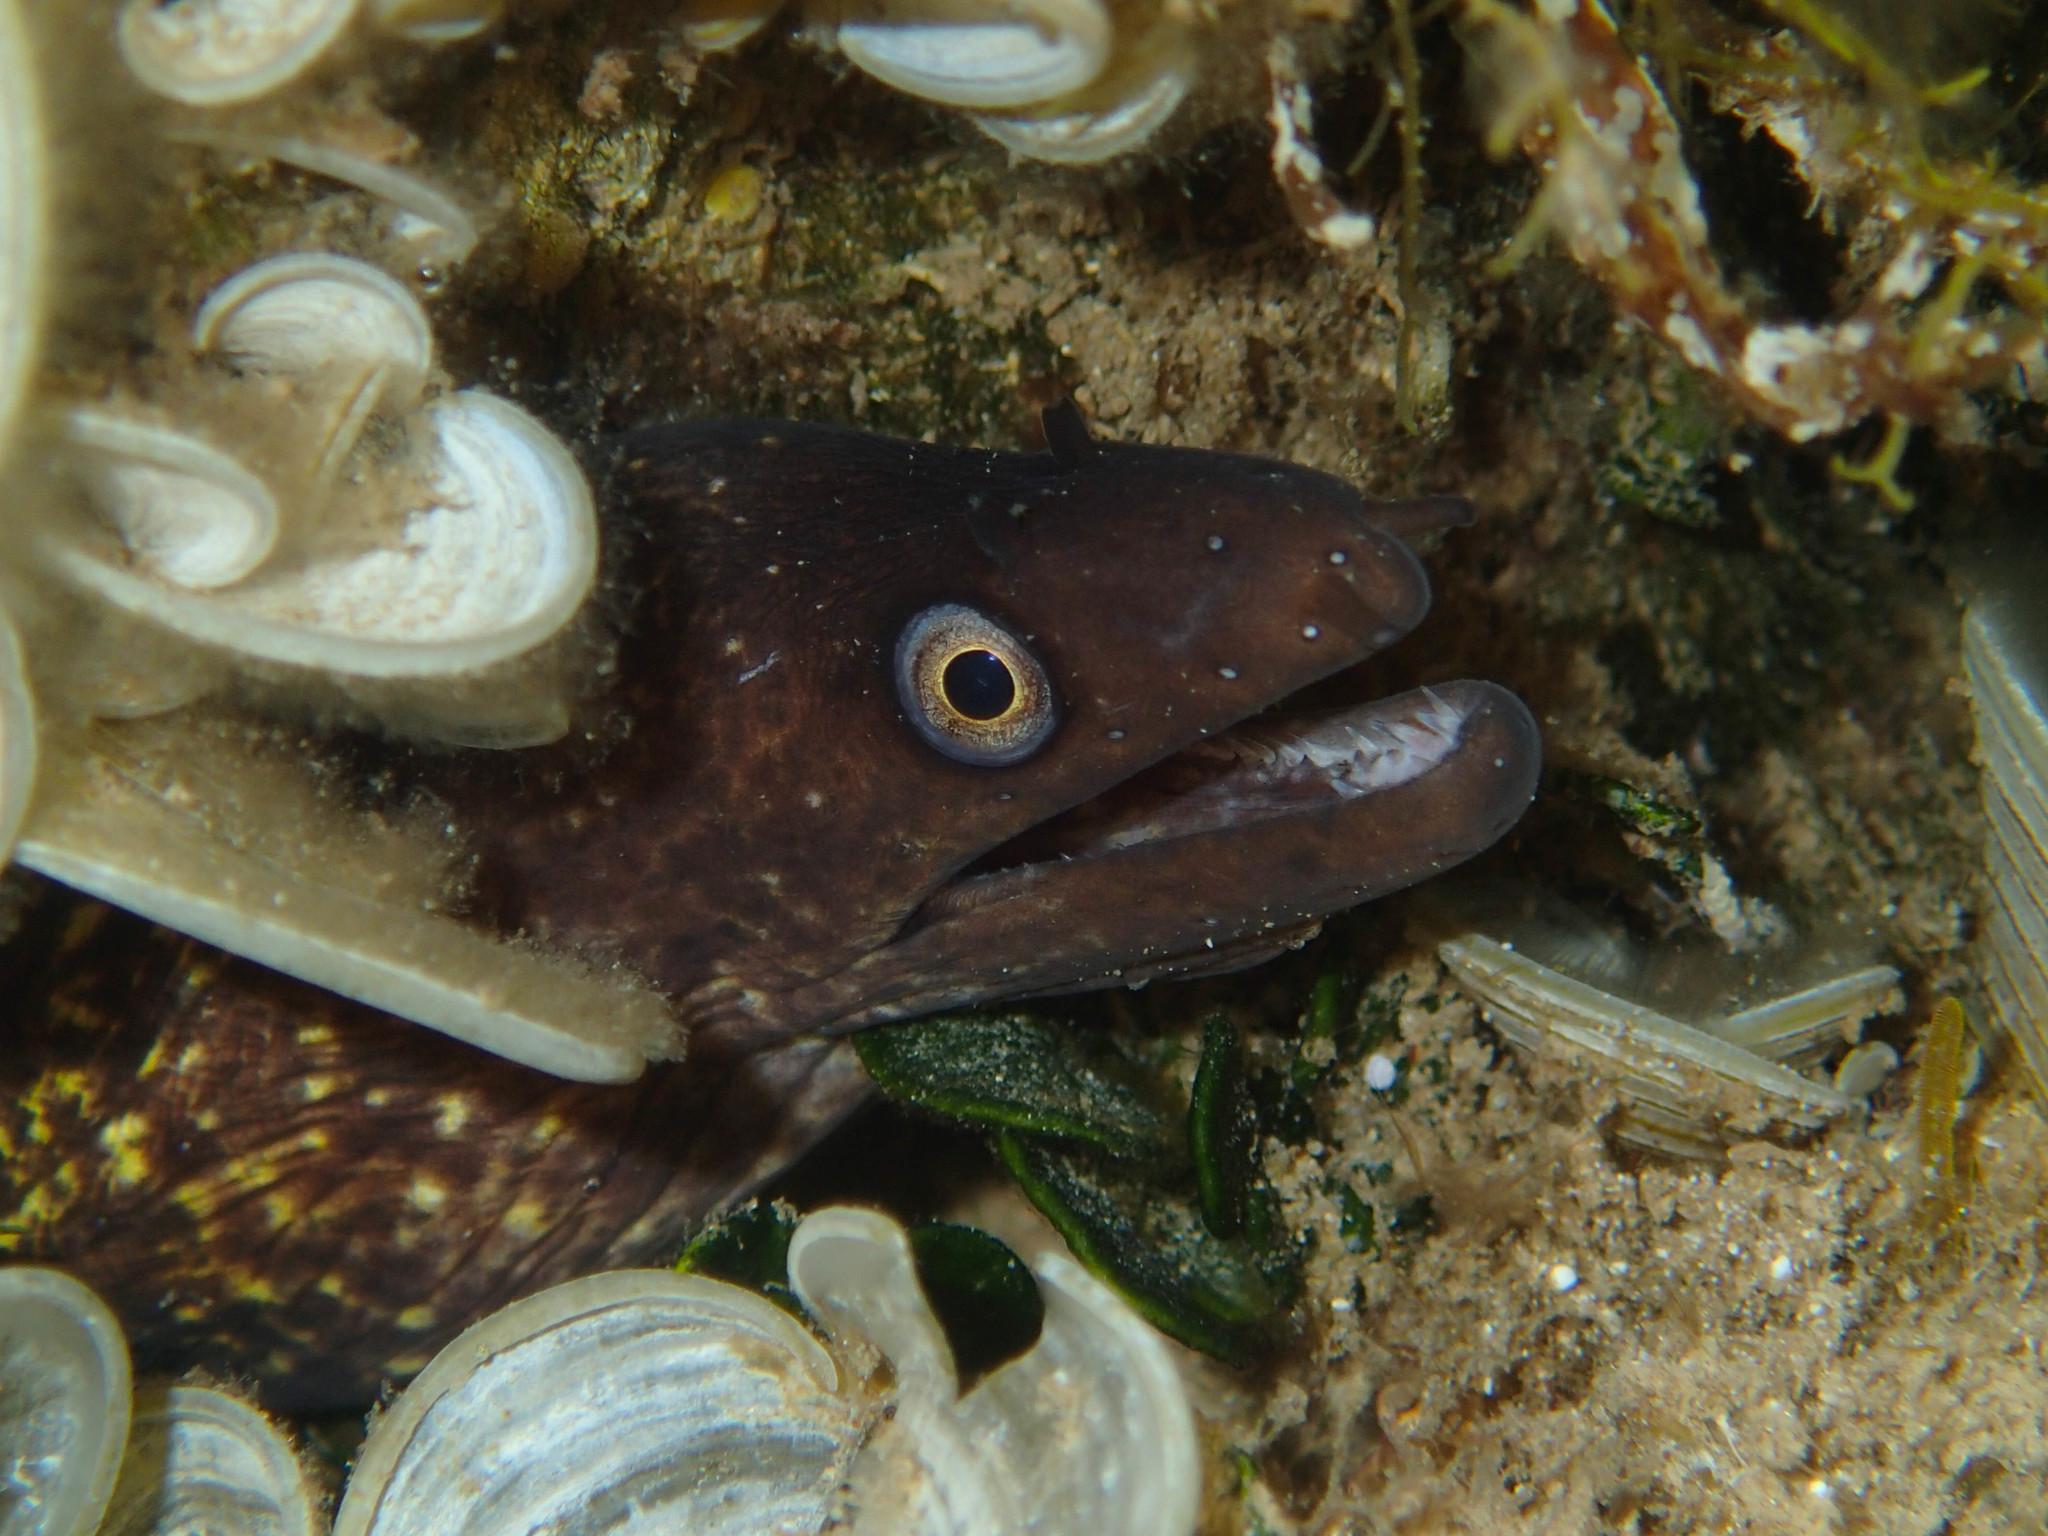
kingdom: Animalia
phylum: Chordata
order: Anguilliformes
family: Muraenidae
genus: Muraena
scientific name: Muraena helena
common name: Mediterranean moray
